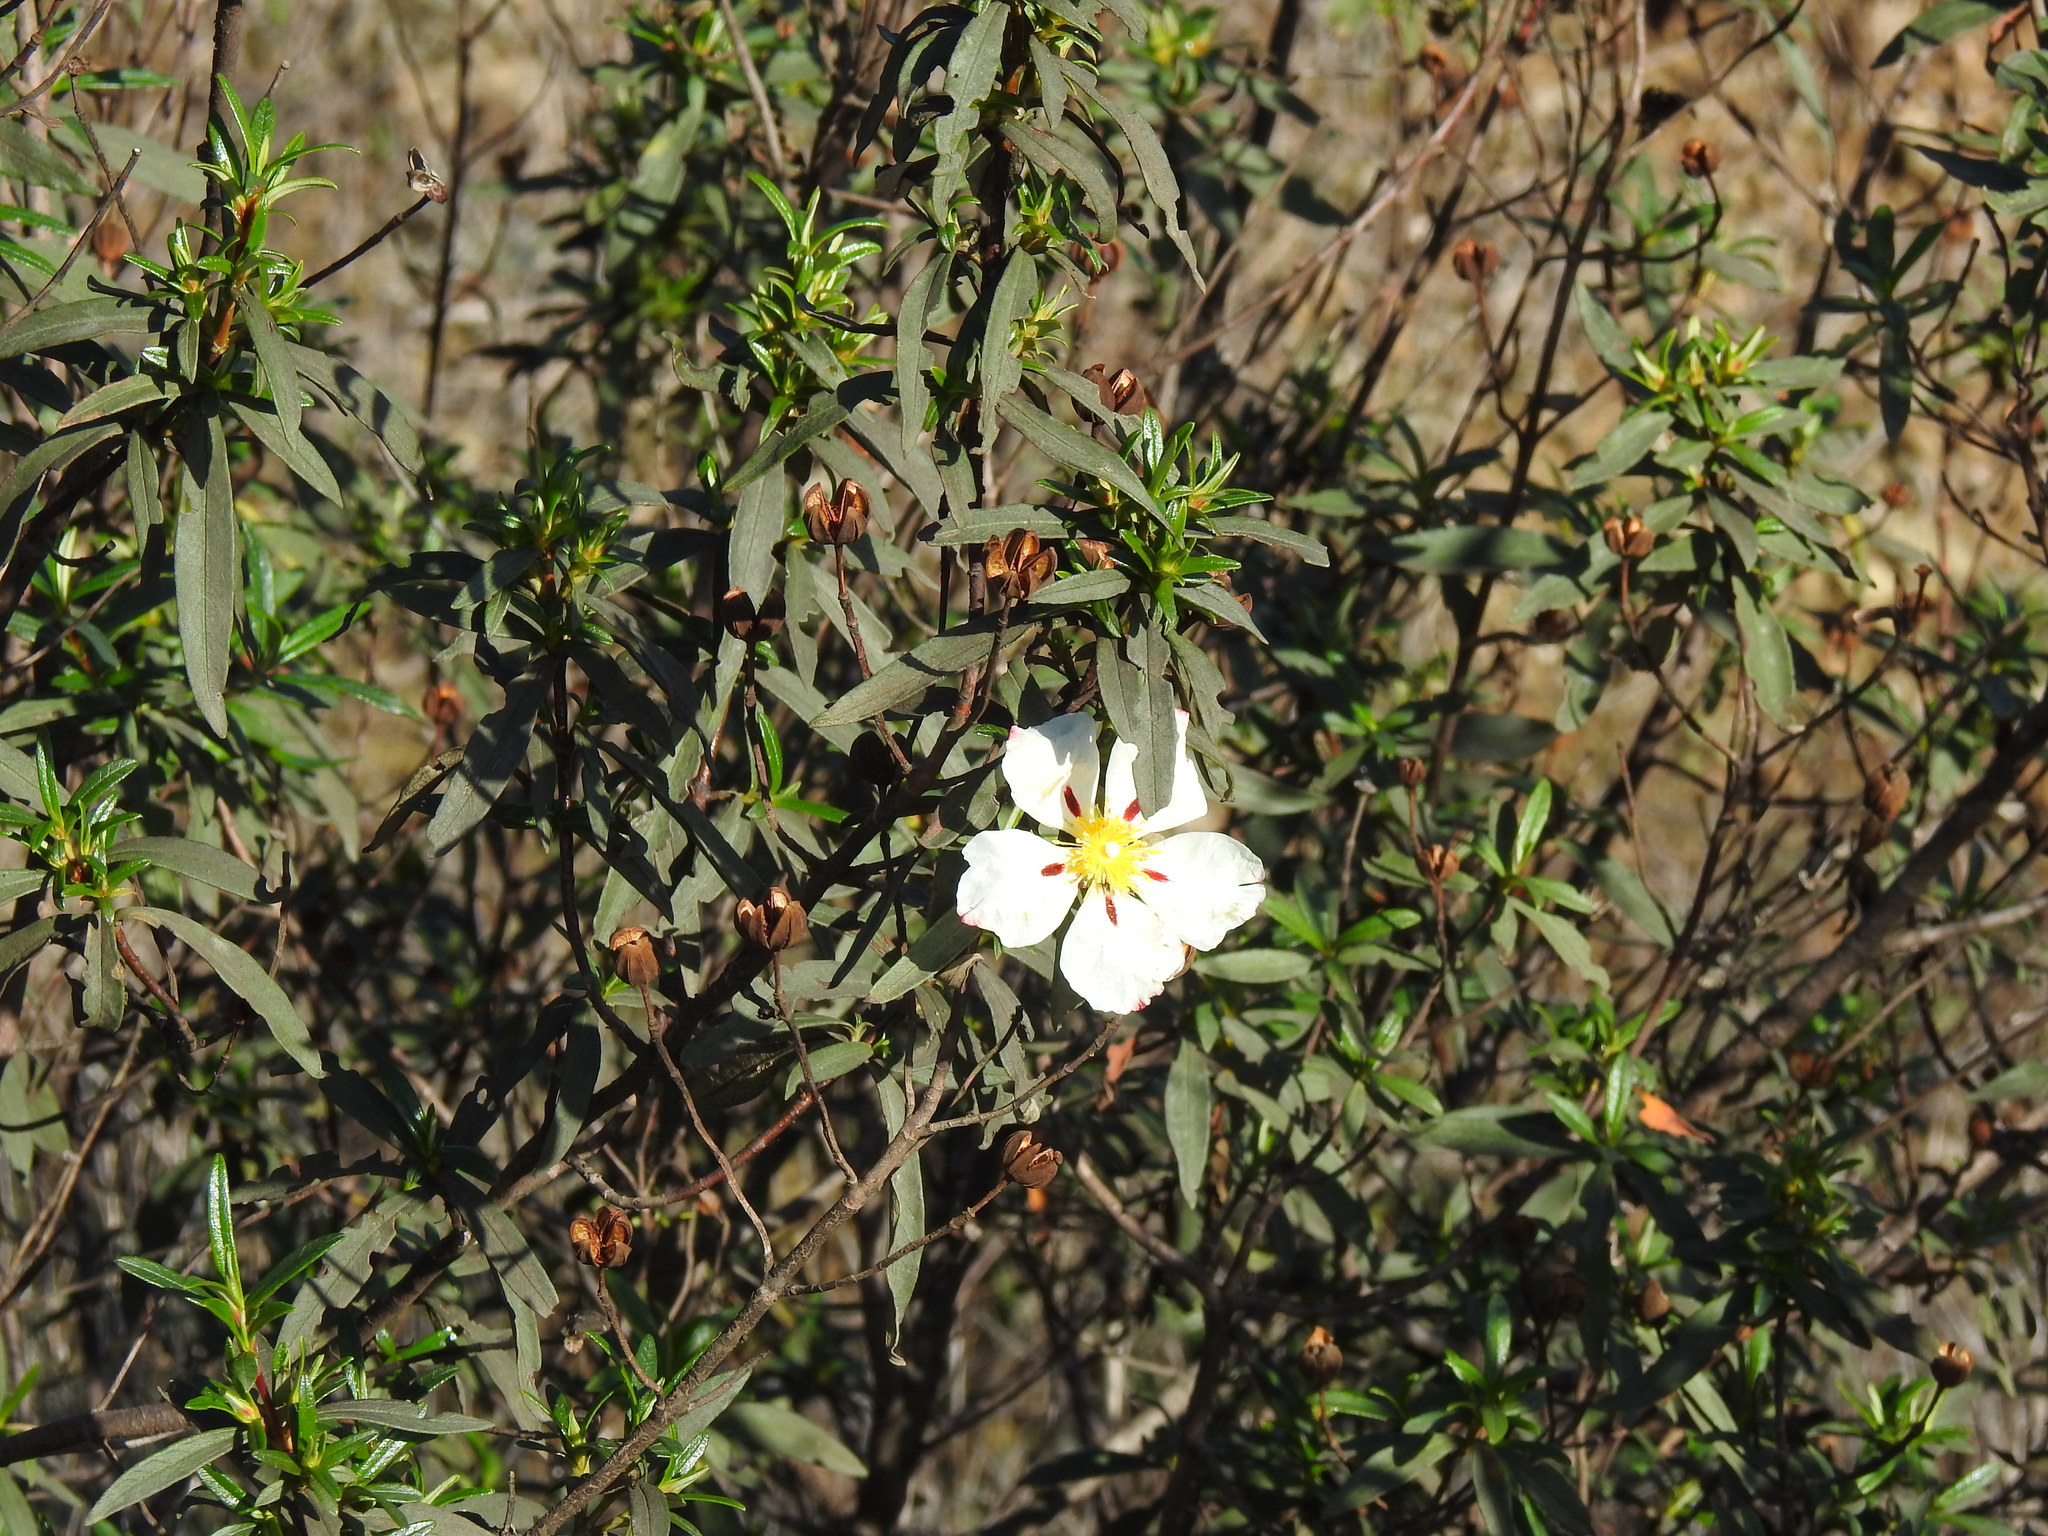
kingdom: Plantae
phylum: Tracheophyta
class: Magnoliopsida
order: Malvales
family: Cistaceae
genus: Cistus
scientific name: Cistus ladanifer
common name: Common gum cistus
